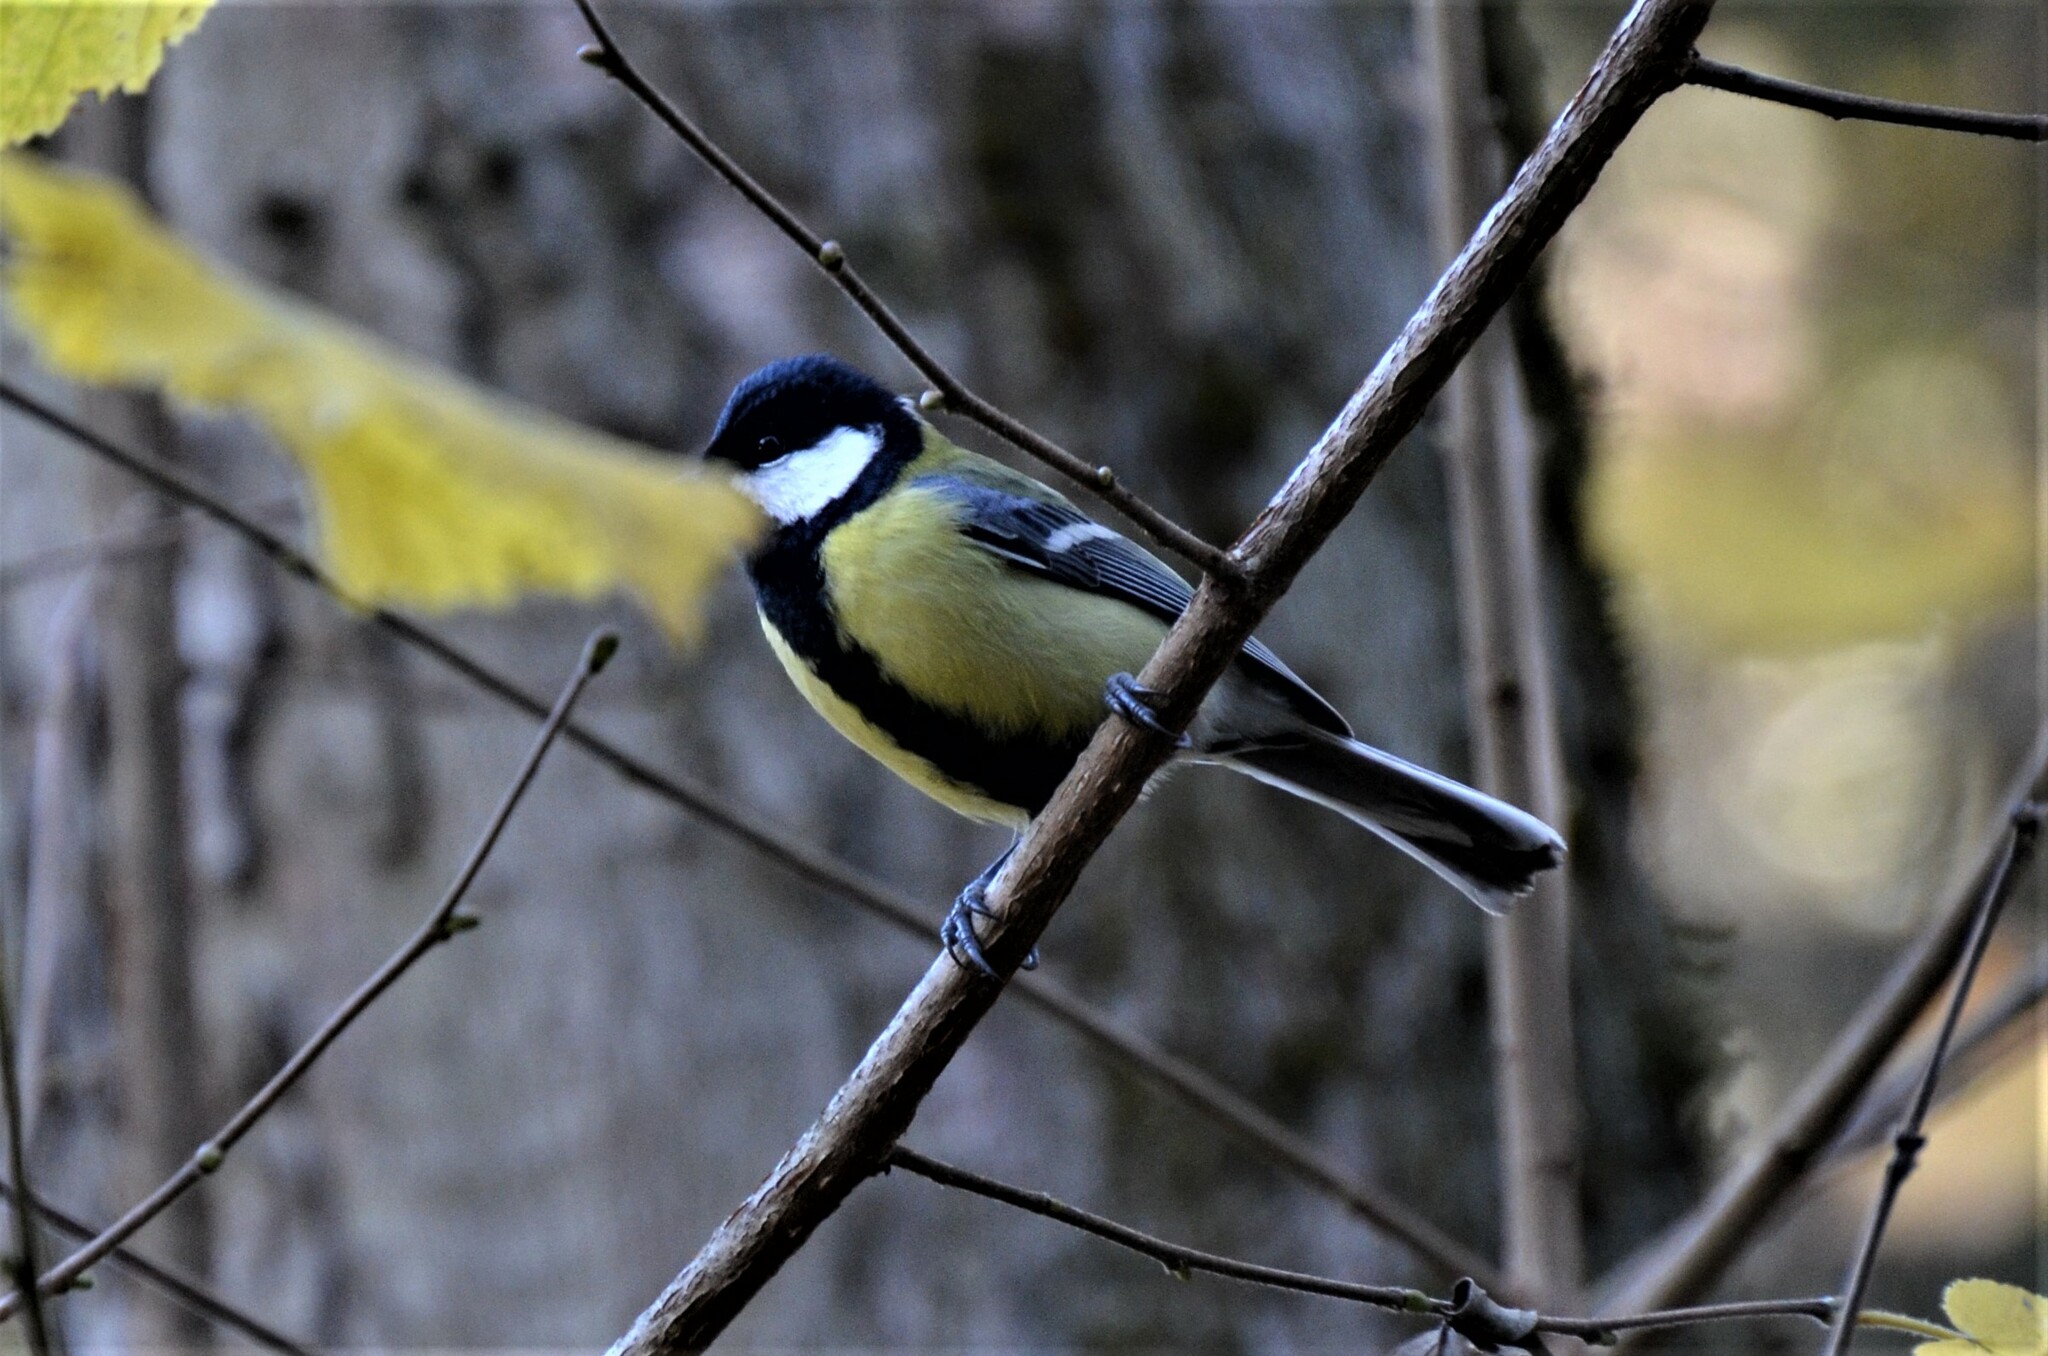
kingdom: Animalia
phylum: Chordata
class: Aves
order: Passeriformes
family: Paridae
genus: Parus
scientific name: Parus major
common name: Great tit
